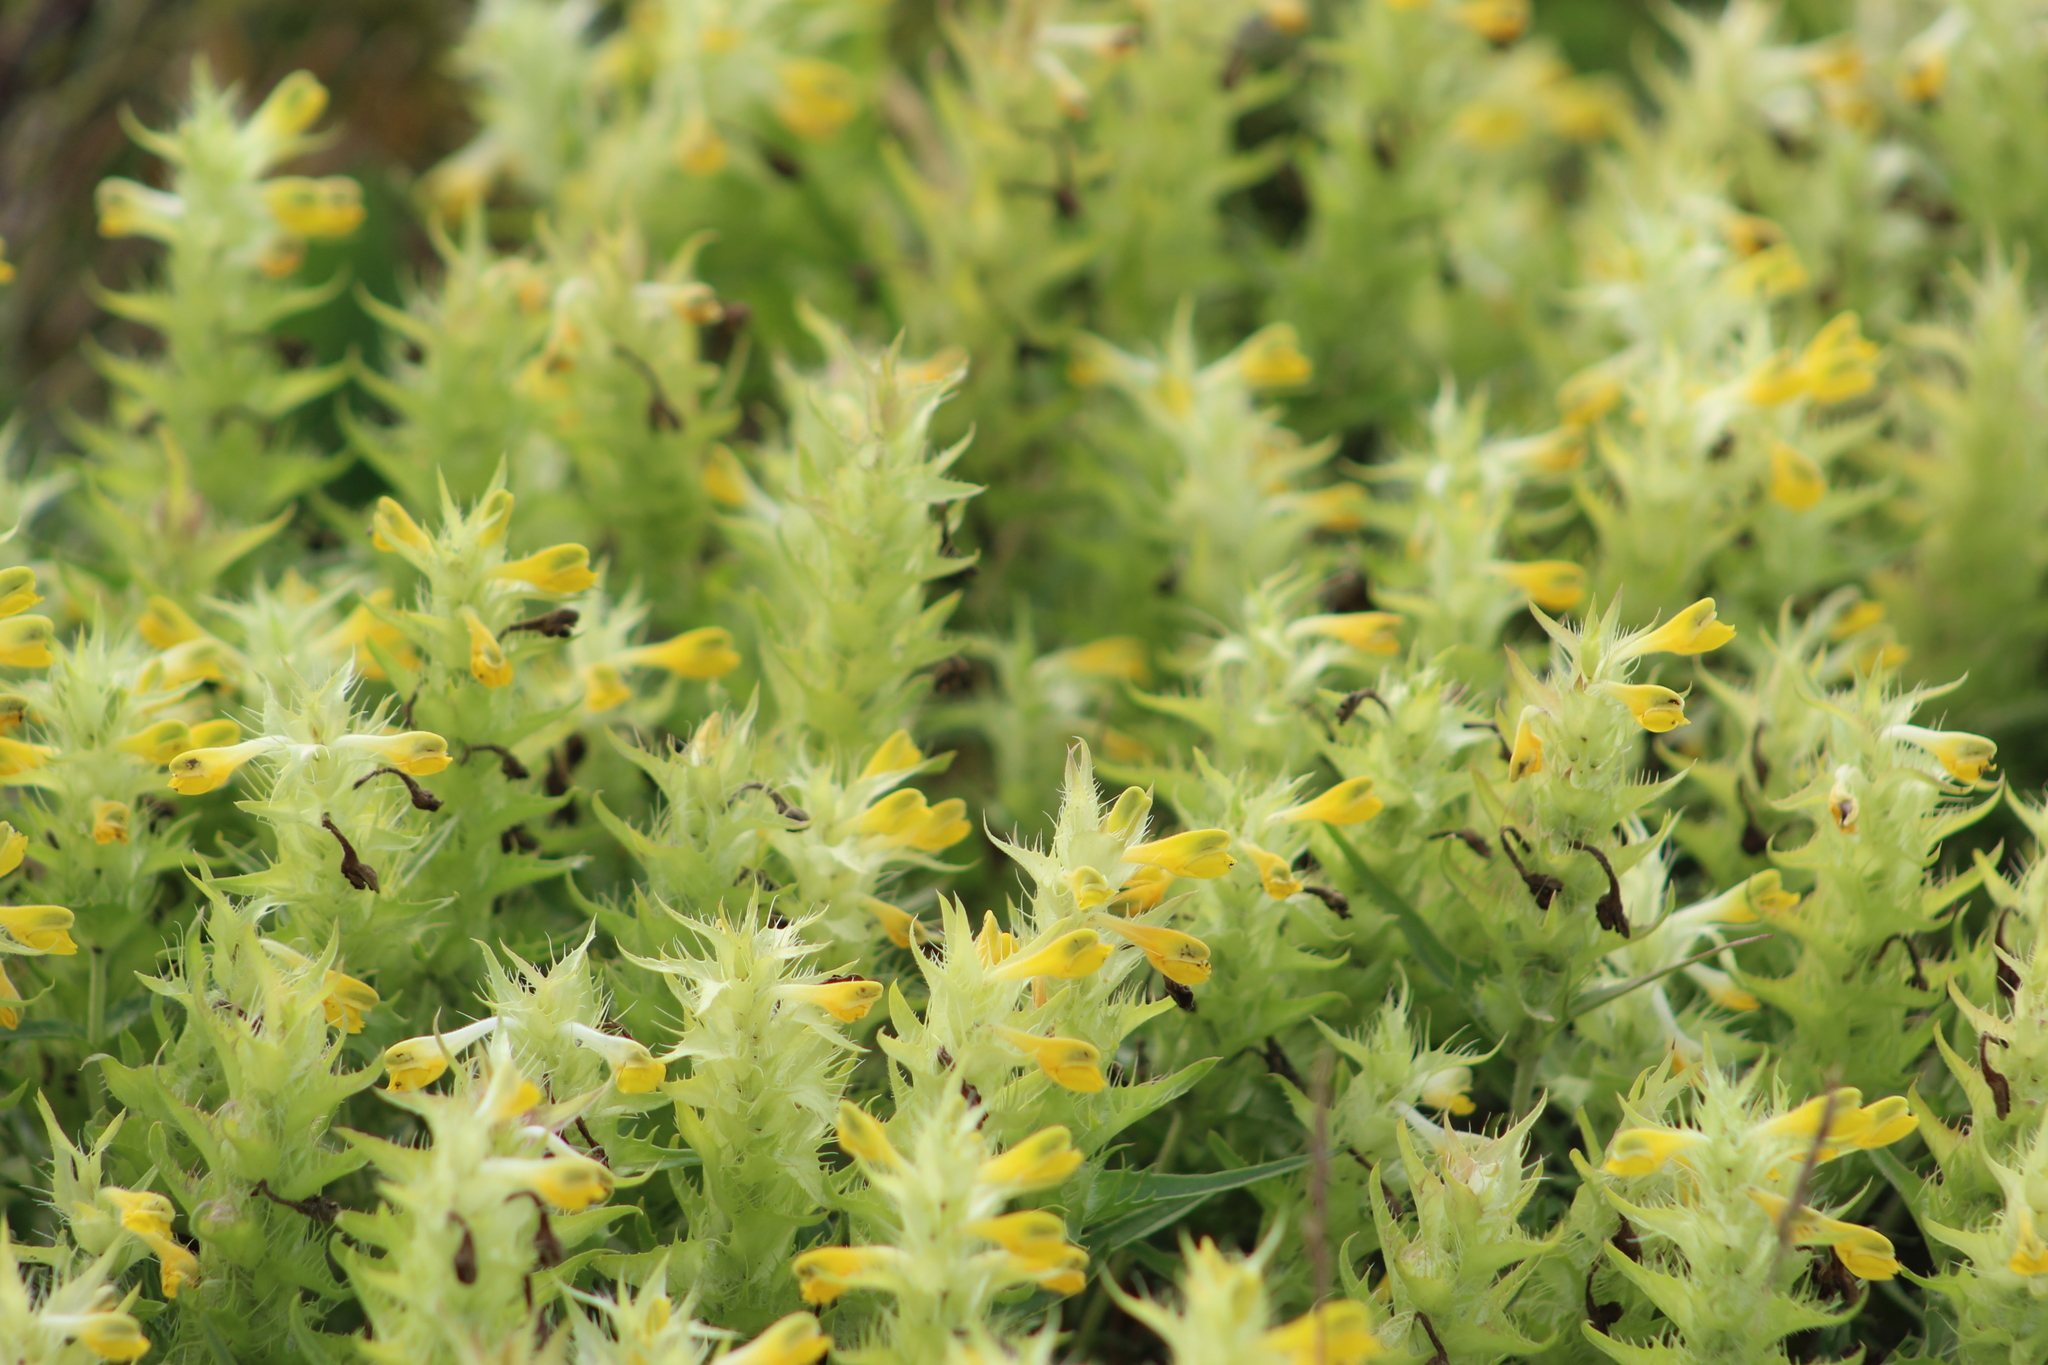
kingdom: Plantae
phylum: Tracheophyta
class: Magnoliopsida
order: Lamiales
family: Orobanchaceae
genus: Melampyrum
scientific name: Melampyrum barbatum
